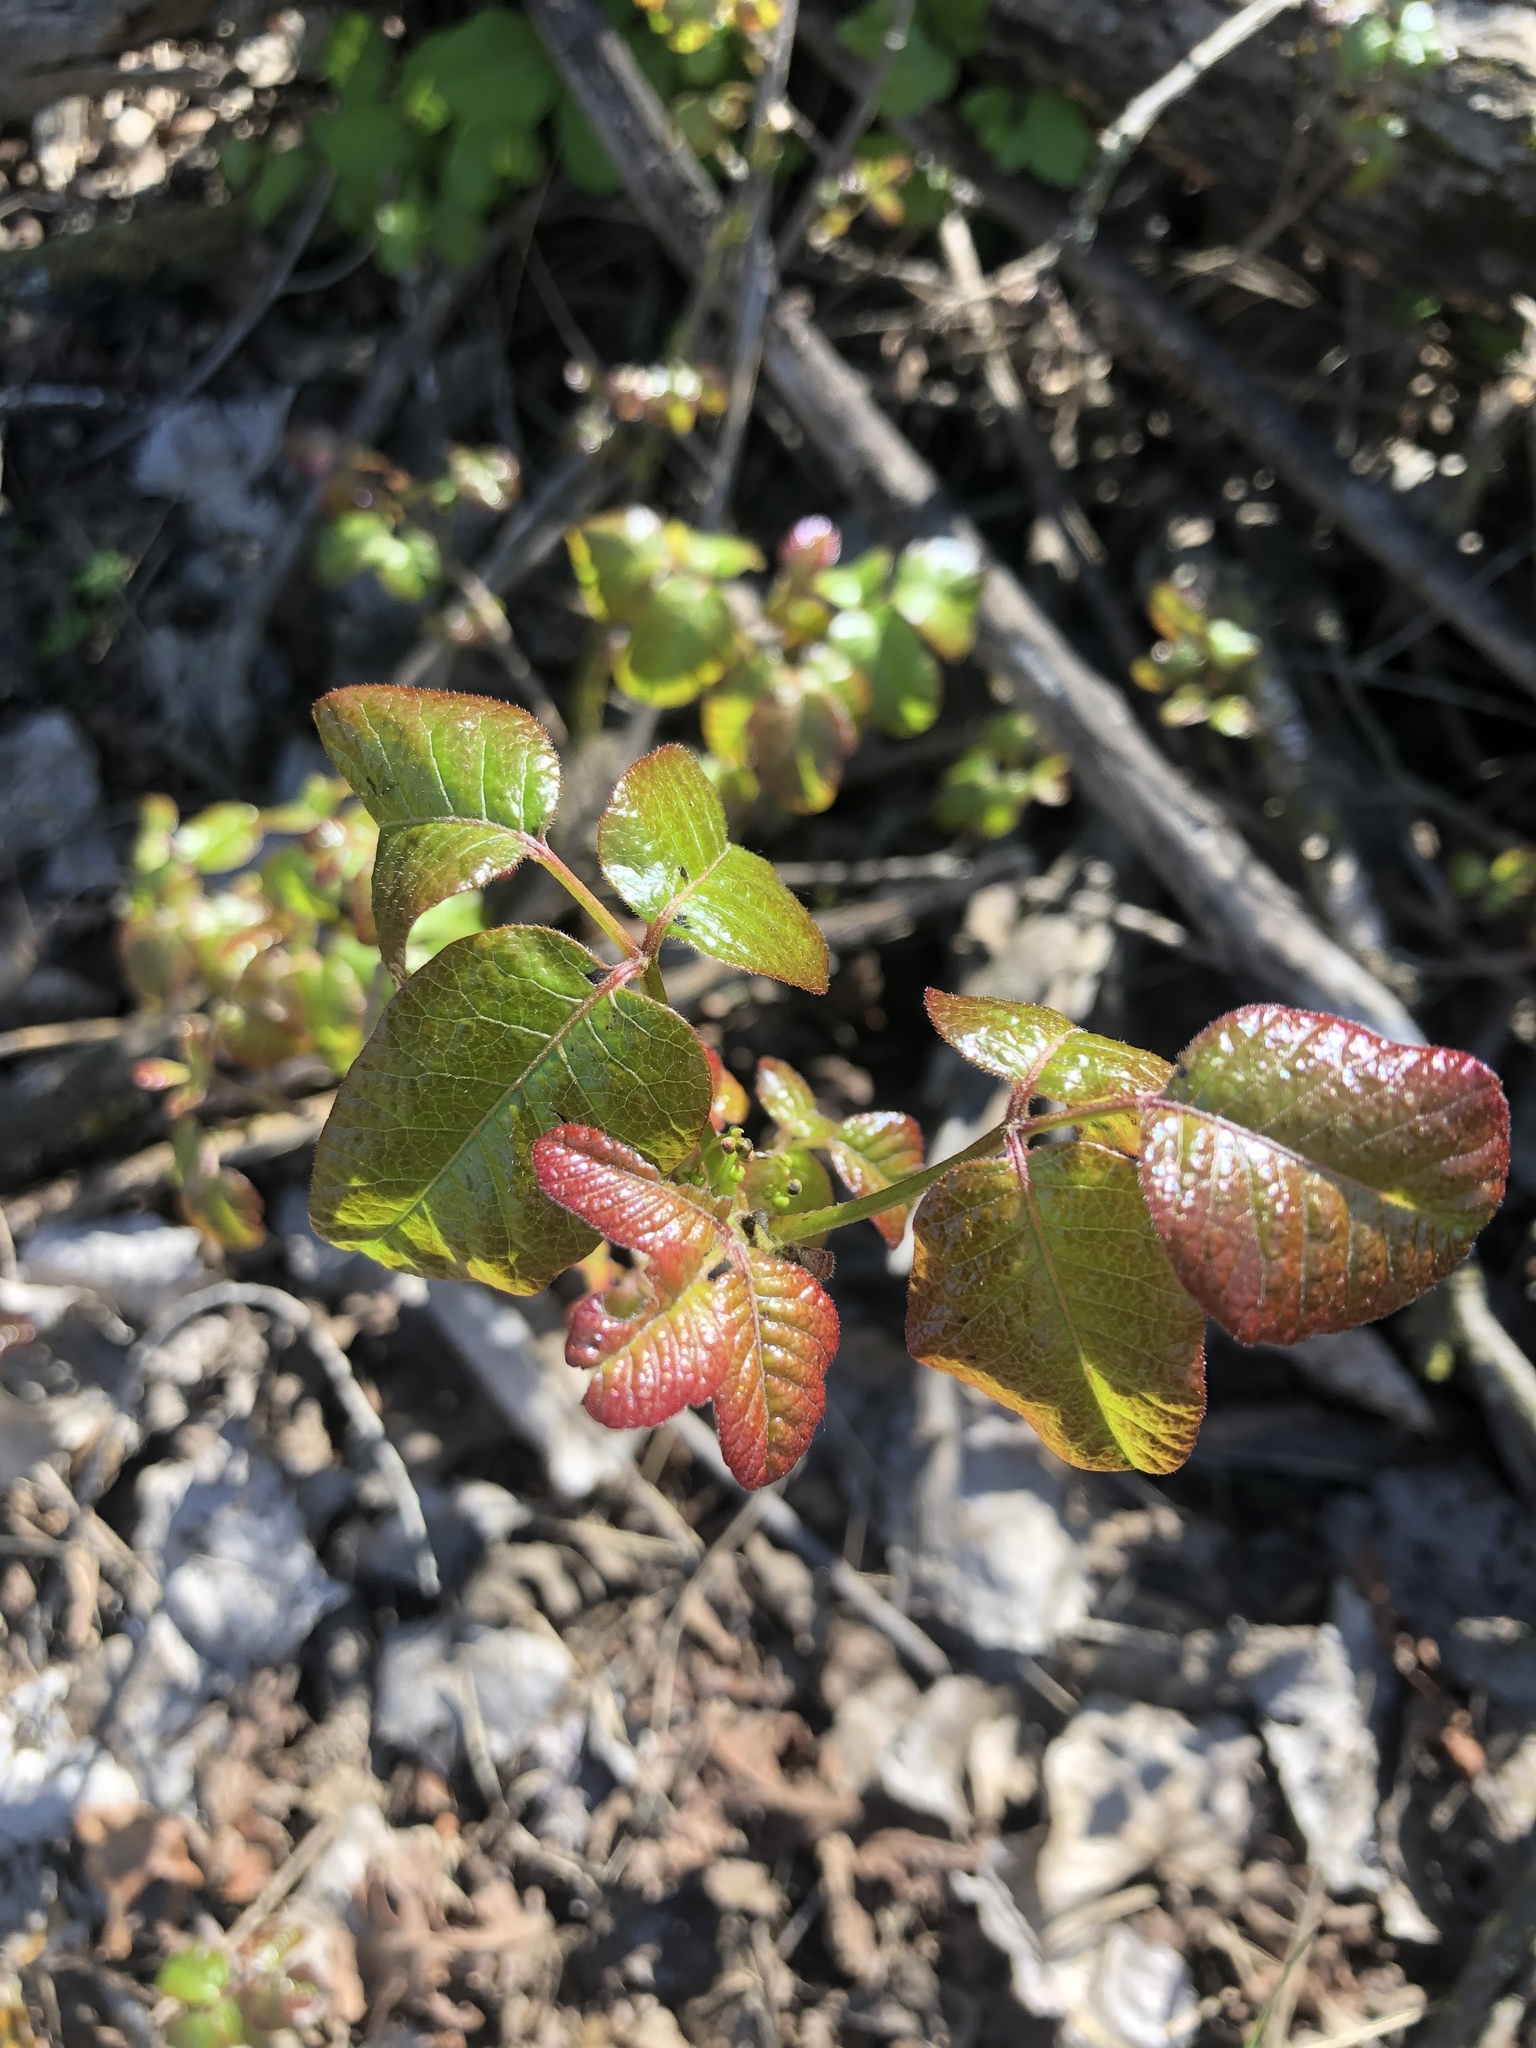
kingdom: Plantae
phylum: Tracheophyta
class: Magnoliopsida
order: Sapindales
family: Anacardiaceae
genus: Toxicodendron
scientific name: Toxicodendron diversilobum
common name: Pacific poison-oak
